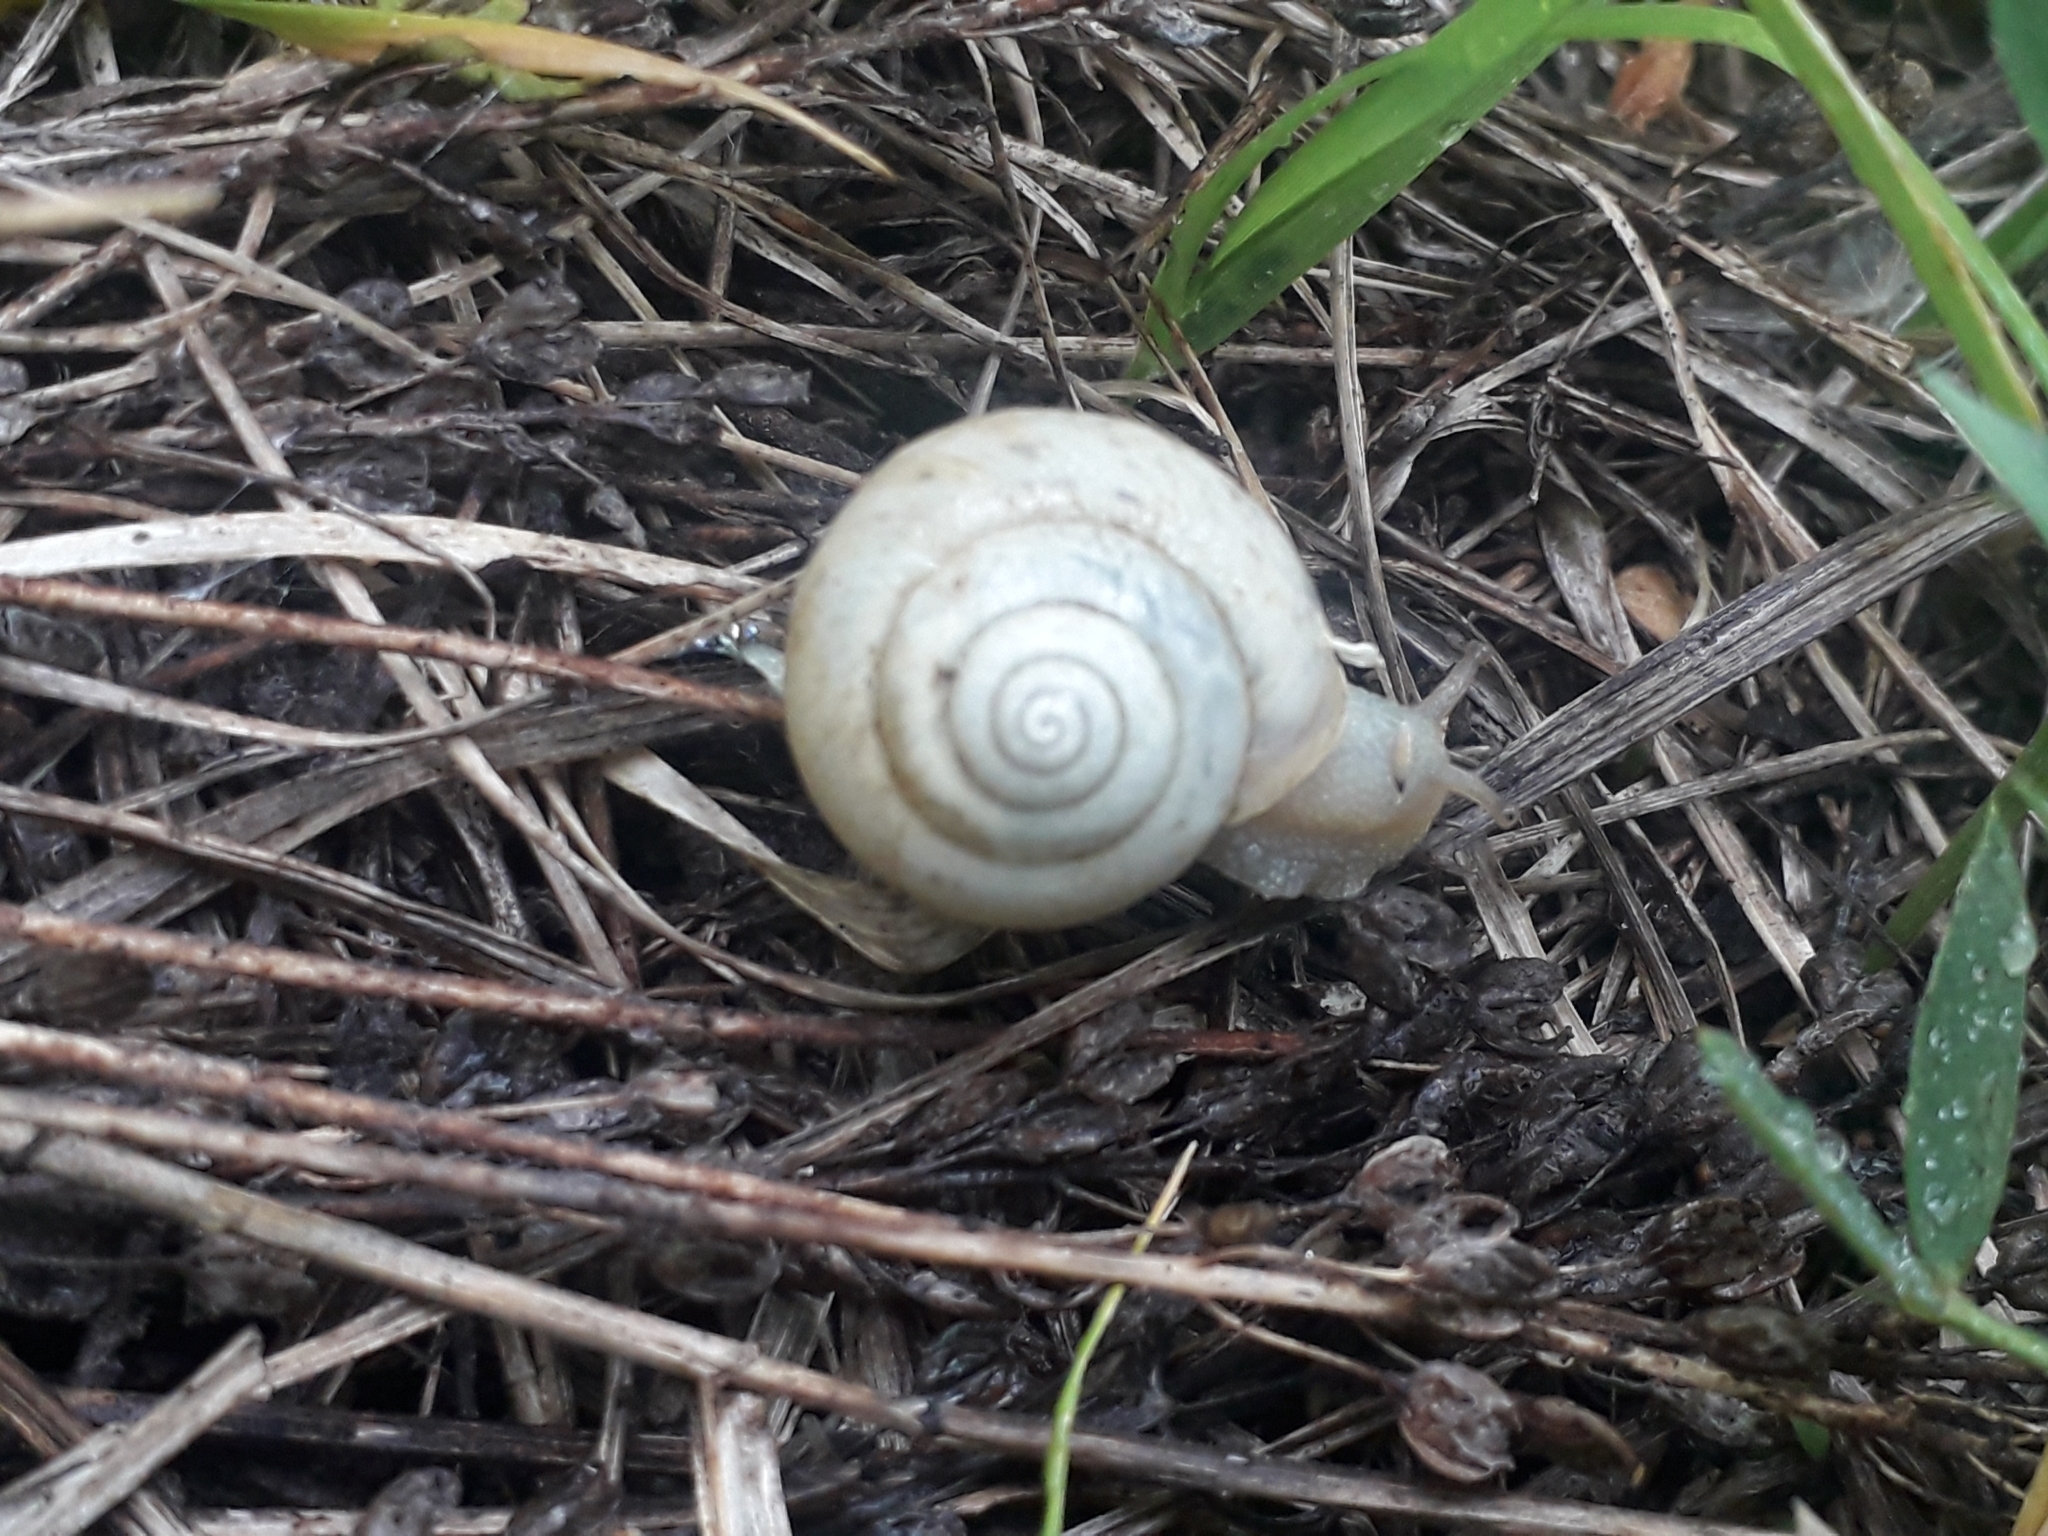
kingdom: Animalia
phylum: Mollusca
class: Gastropoda
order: Stylommatophora
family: Camaenidae
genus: Fruticicola
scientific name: Fruticicola fruticum
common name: Bush snail
